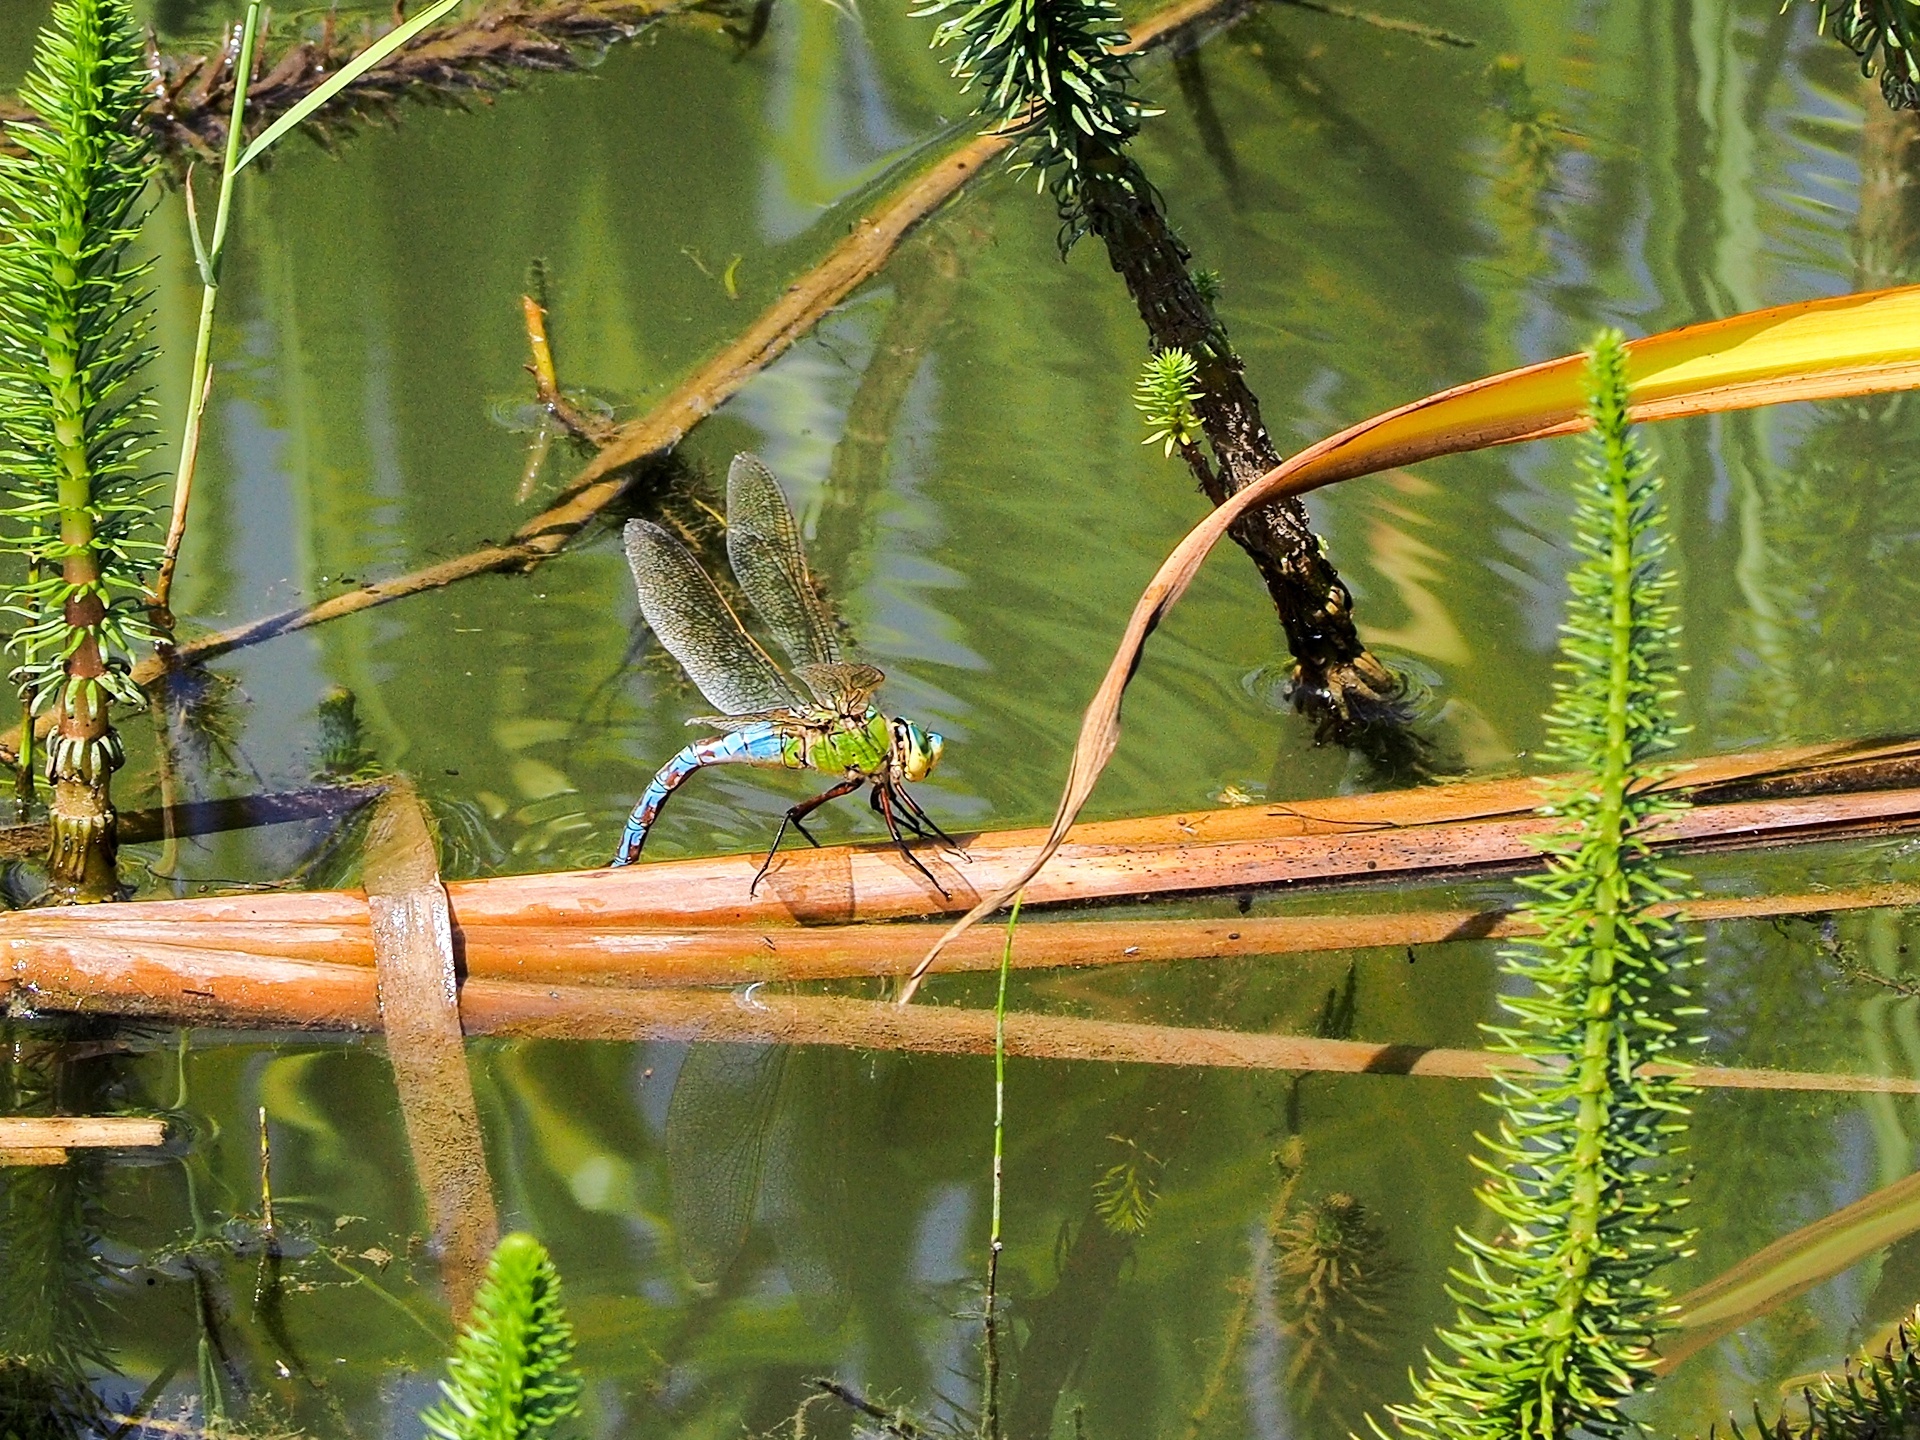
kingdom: Animalia
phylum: Arthropoda
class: Insecta
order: Odonata
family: Aeshnidae
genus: Anax
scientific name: Anax imperator
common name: Emperor dragonfly
